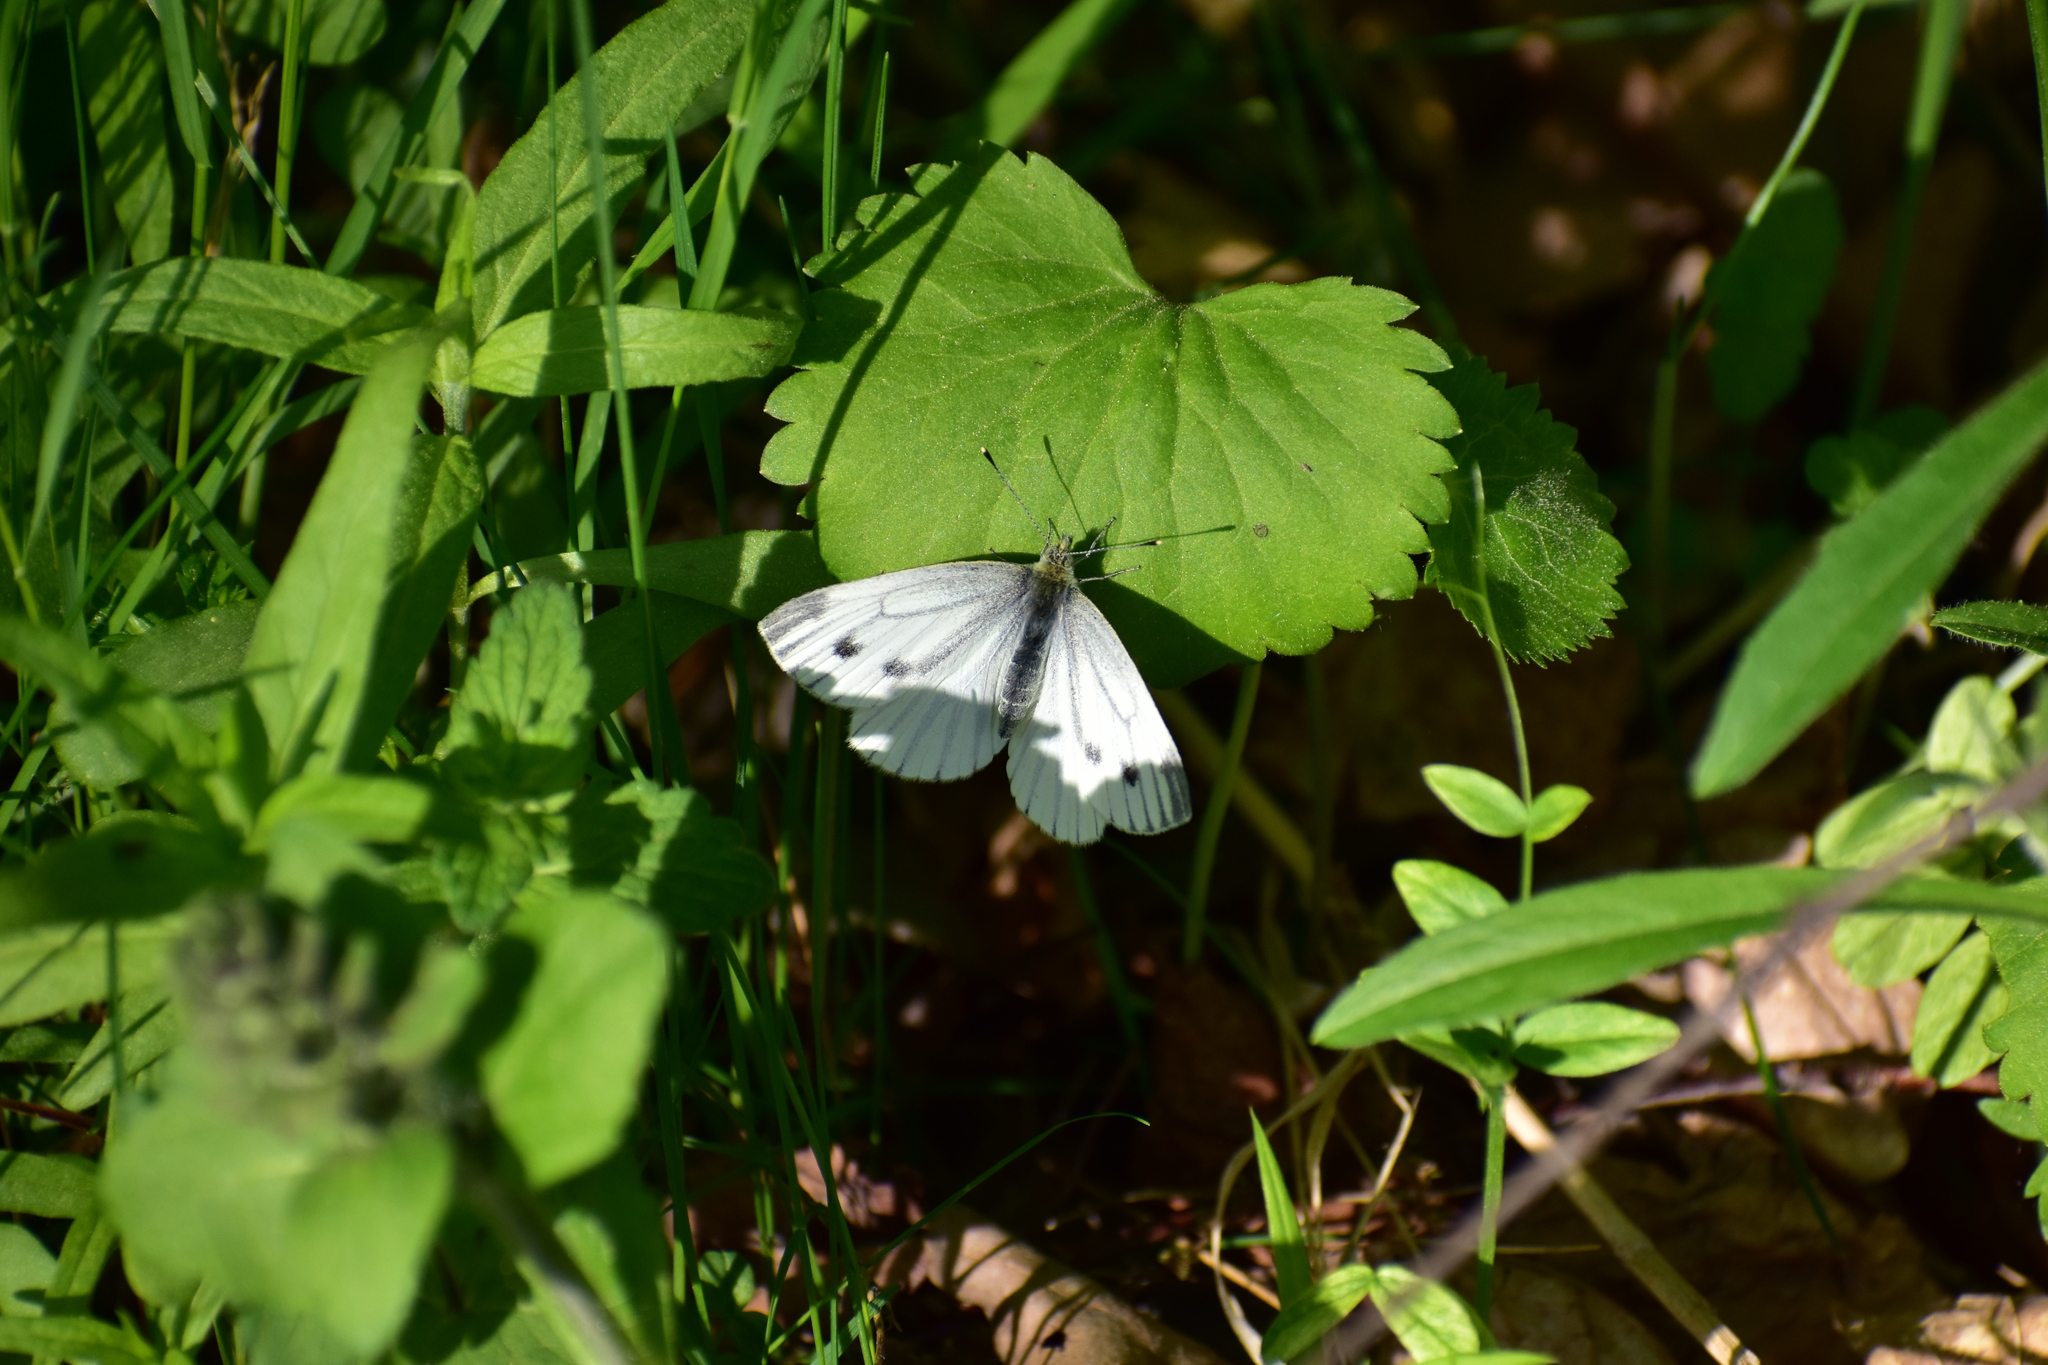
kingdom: Animalia
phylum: Arthropoda
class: Insecta
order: Lepidoptera
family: Pieridae
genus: Pieris
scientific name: Pieris napi
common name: Green-veined white
